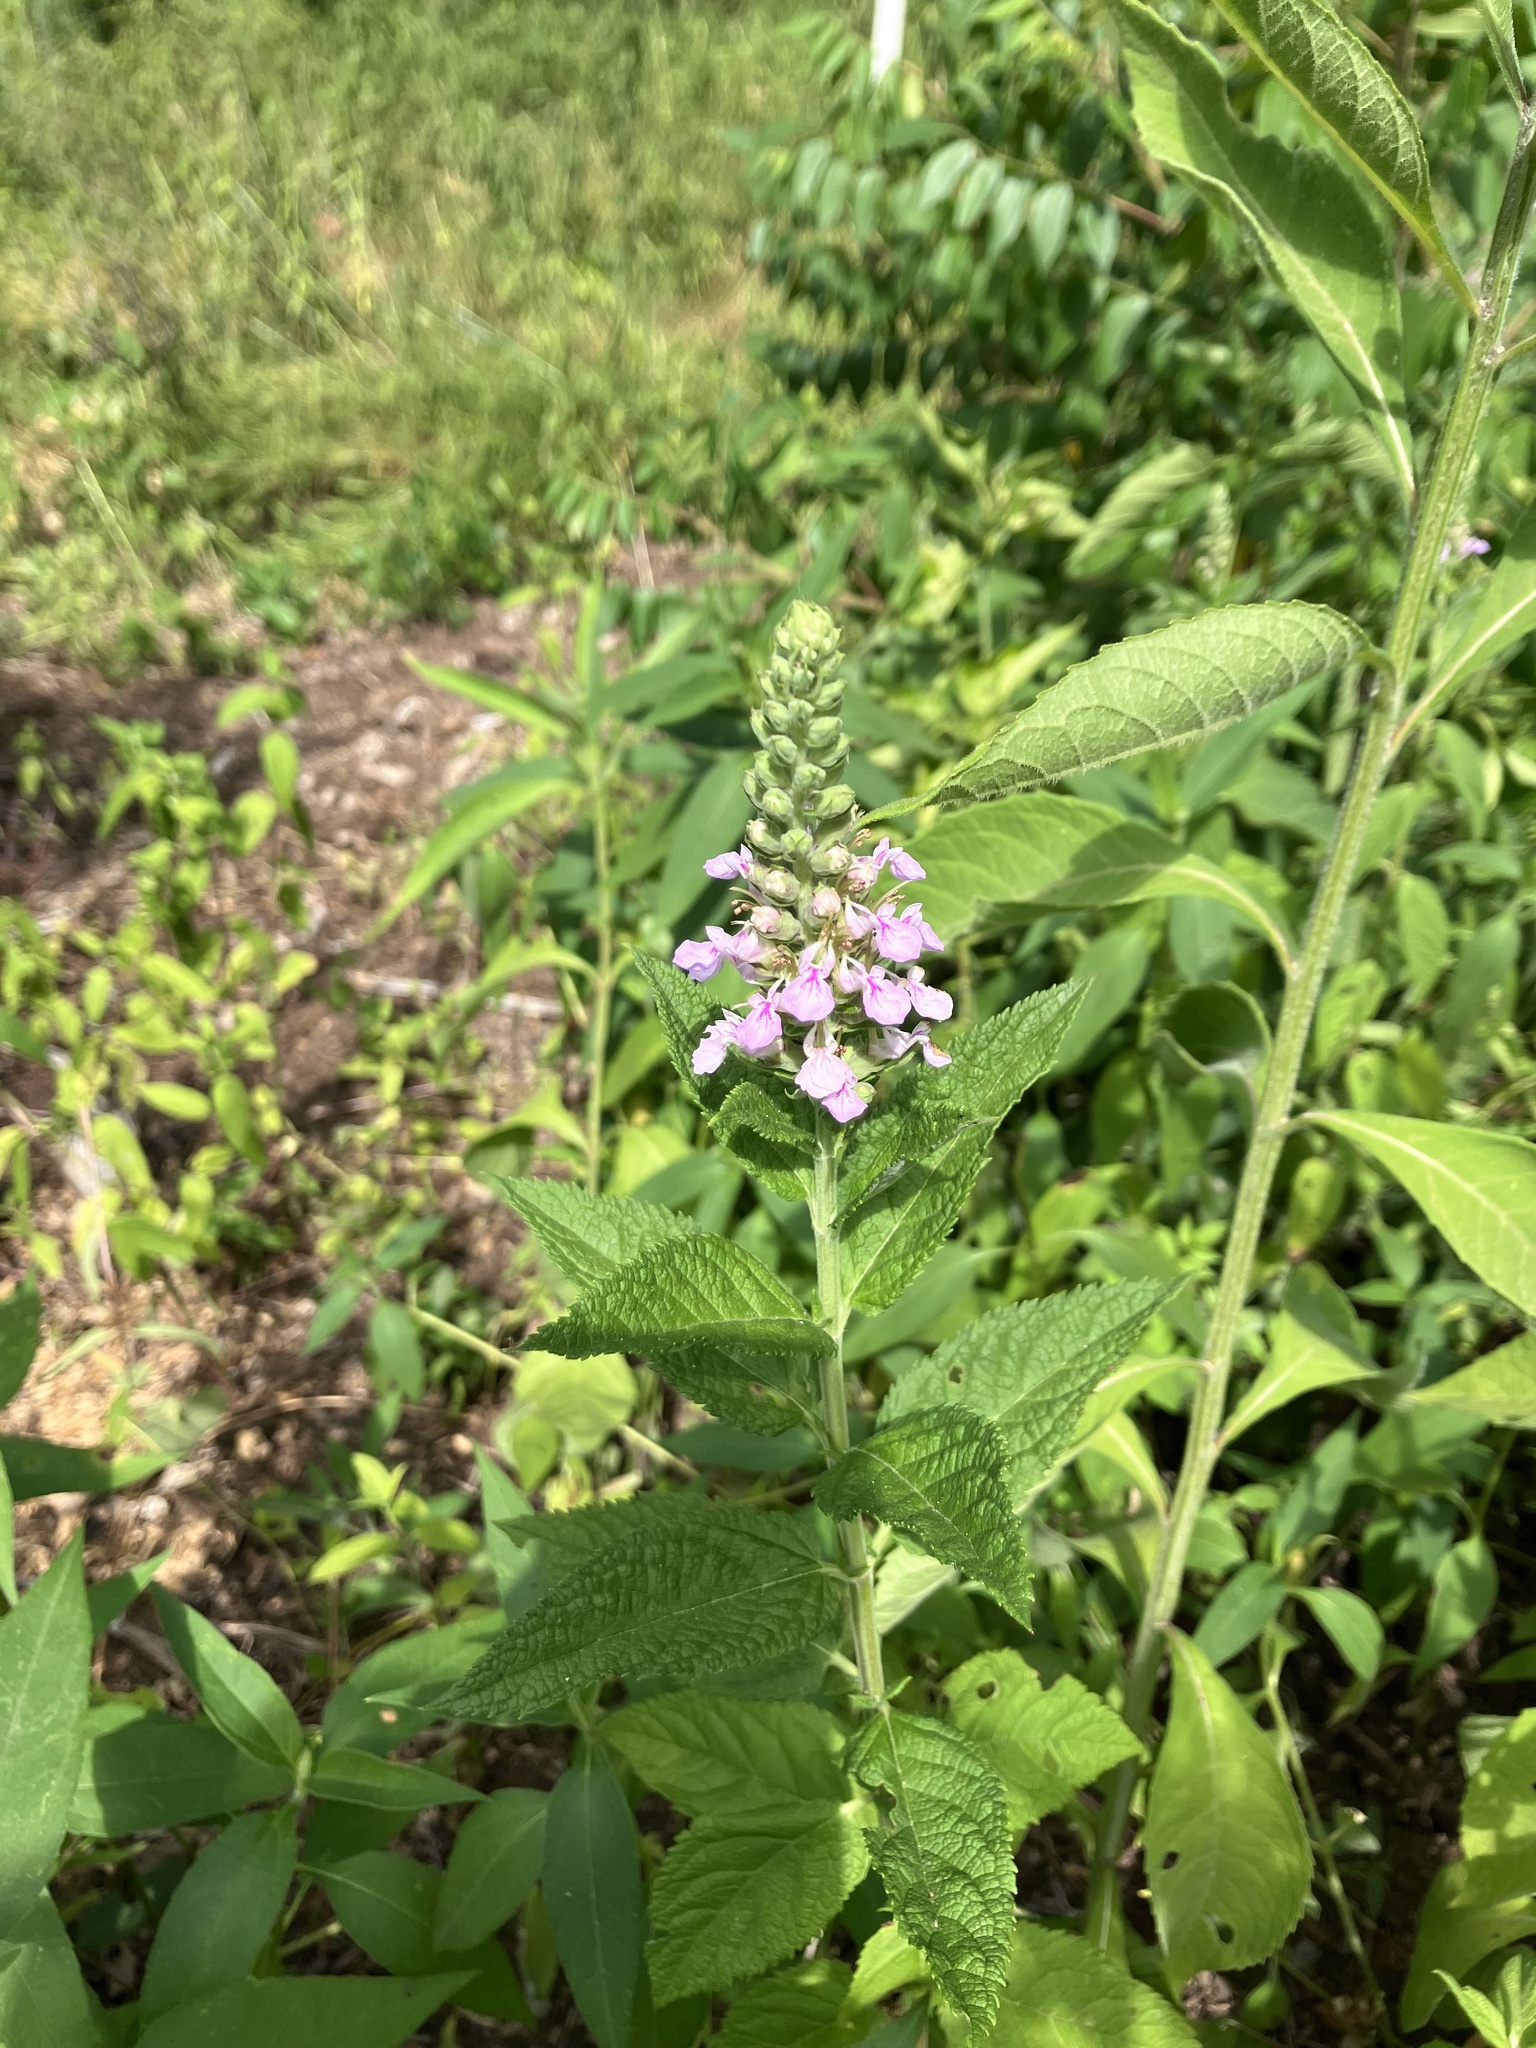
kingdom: Plantae
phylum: Tracheophyta
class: Magnoliopsida
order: Lamiales
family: Lamiaceae
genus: Teucrium
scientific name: Teucrium canadense
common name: American germander
